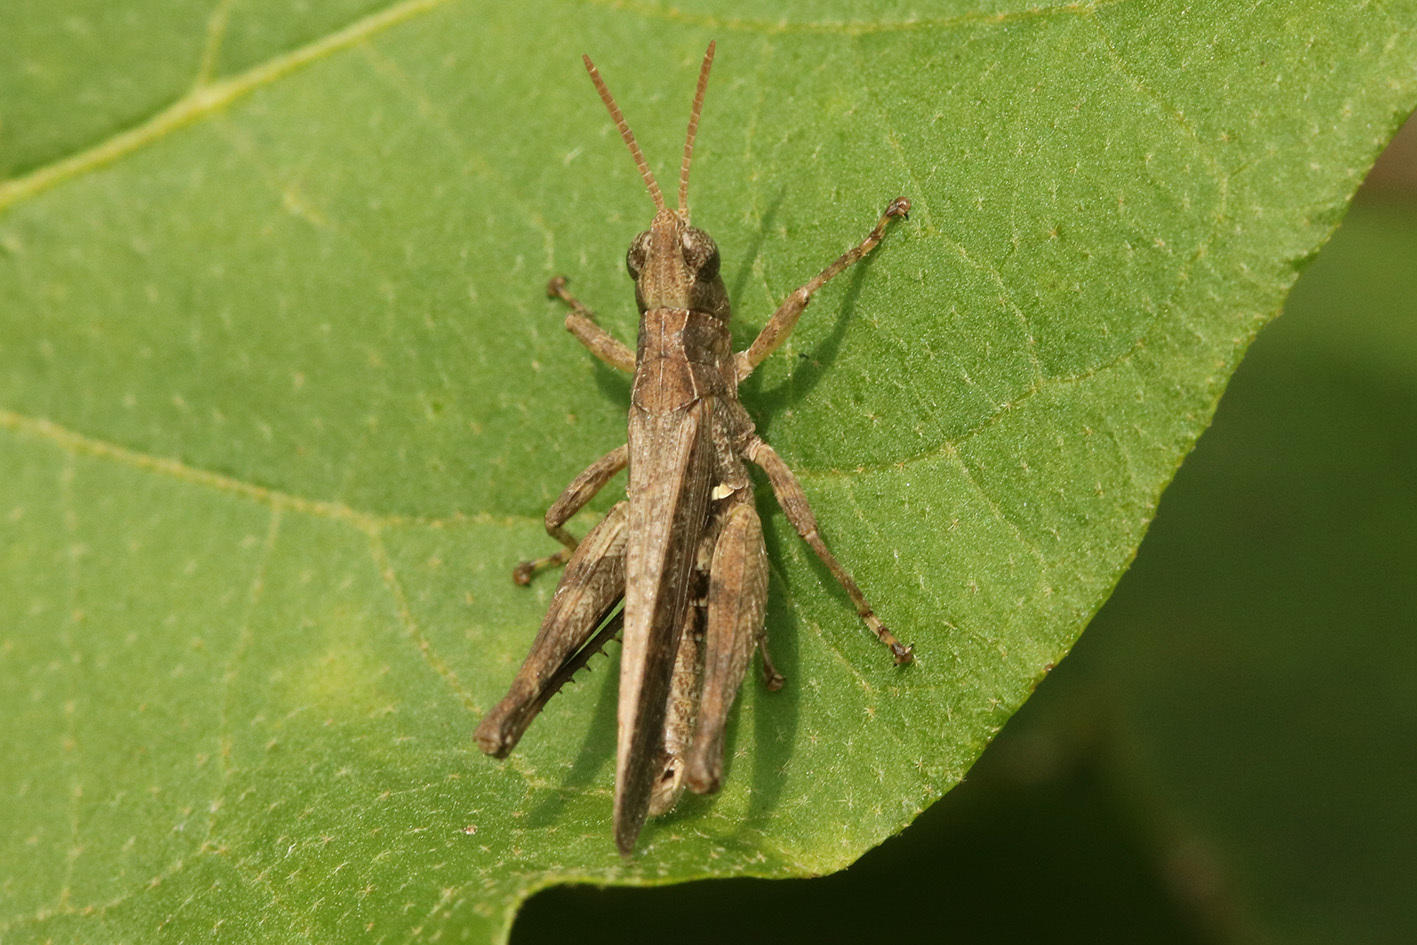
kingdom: Animalia
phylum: Arthropoda
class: Insecta
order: Orthoptera
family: Acrididae
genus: Orphulella
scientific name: Orphulella punctata
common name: Slant-faced grasshopper
